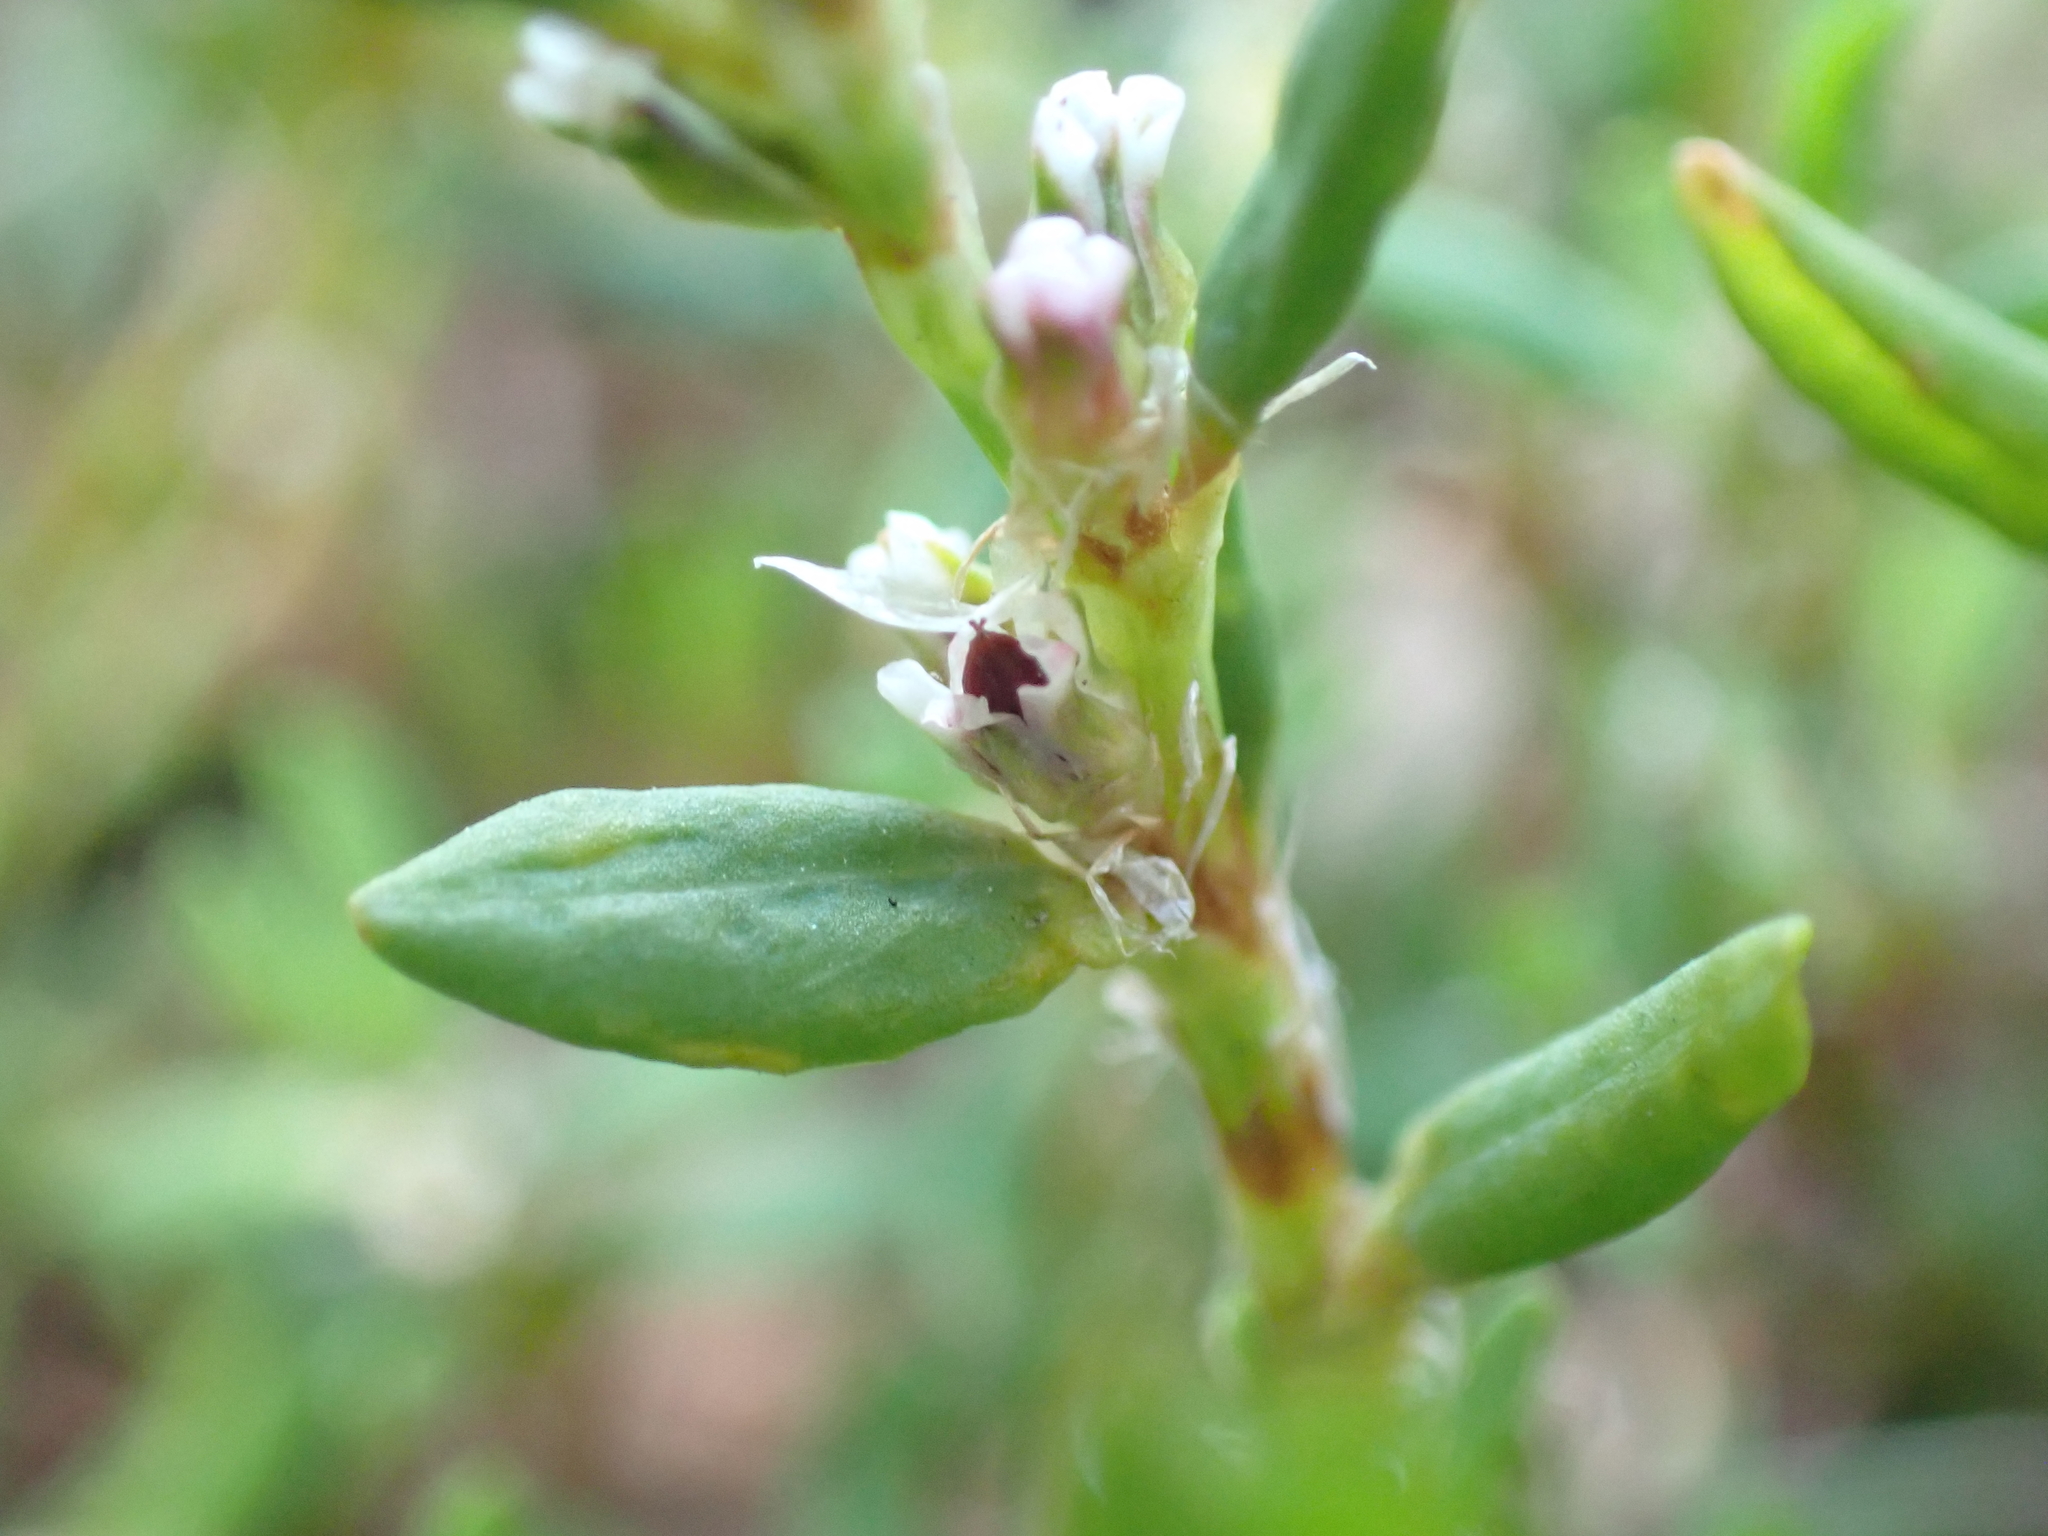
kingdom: Plantae
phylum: Tracheophyta
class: Magnoliopsida
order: Caryophyllales
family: Polygonaceae
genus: Polygonum
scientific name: Polygonum aviculare
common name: Prostrate knotweed
